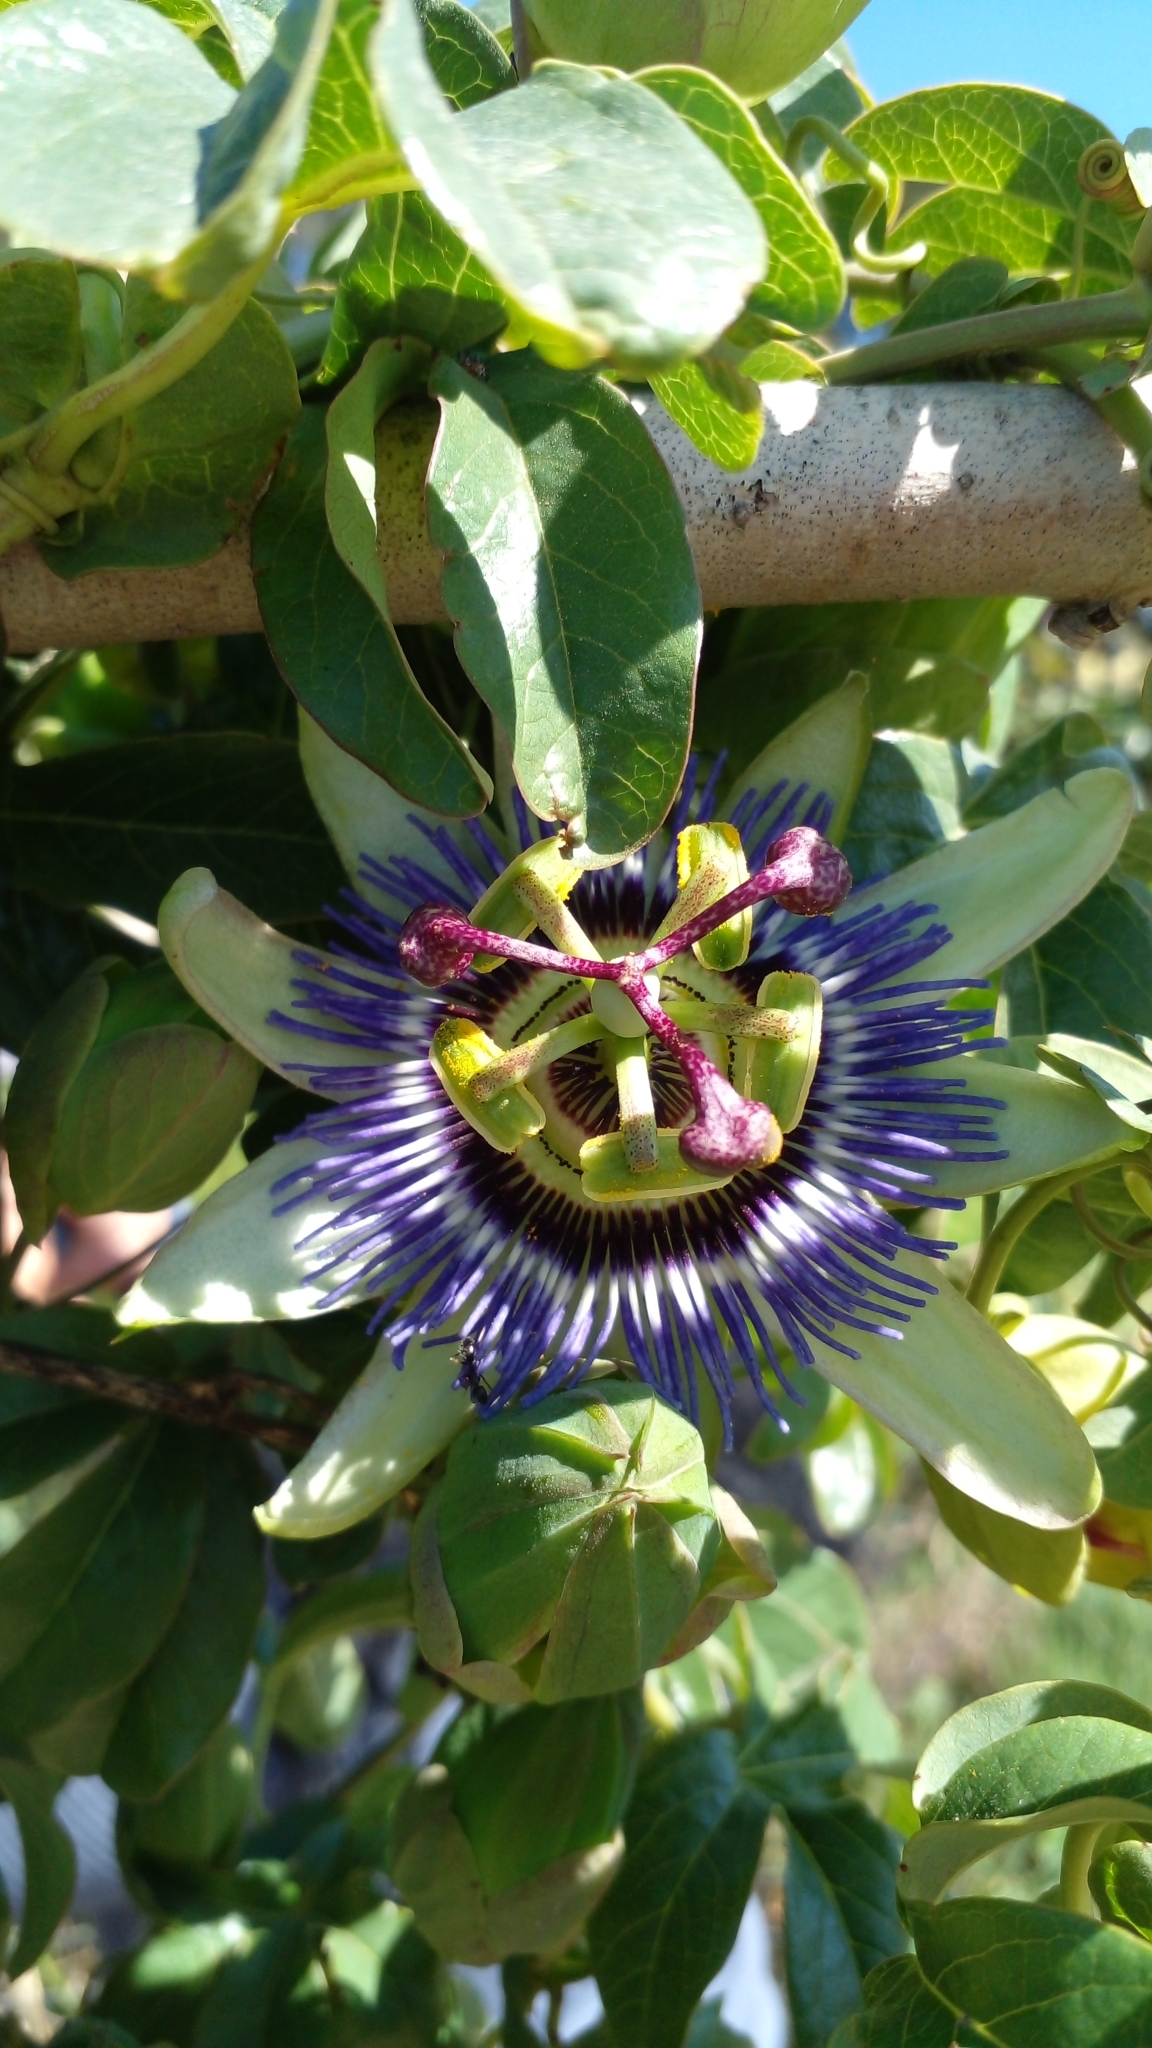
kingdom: Plantae
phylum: Tracheophyta
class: Magnoliopsida
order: Malpighiales
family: Passifloraceae
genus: Passiflora
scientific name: Passiflora caerulea
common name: Blue passionflower
